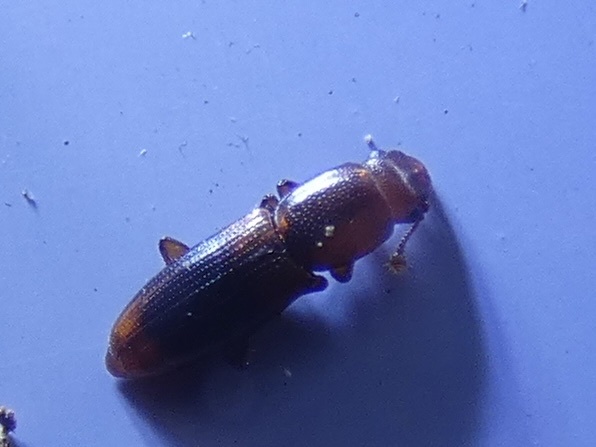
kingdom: Animalia
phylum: Arthropoda
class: Insecta
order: Coleoptera
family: Monotomidae
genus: Rhizophagus
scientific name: Rhizophagus dispar
